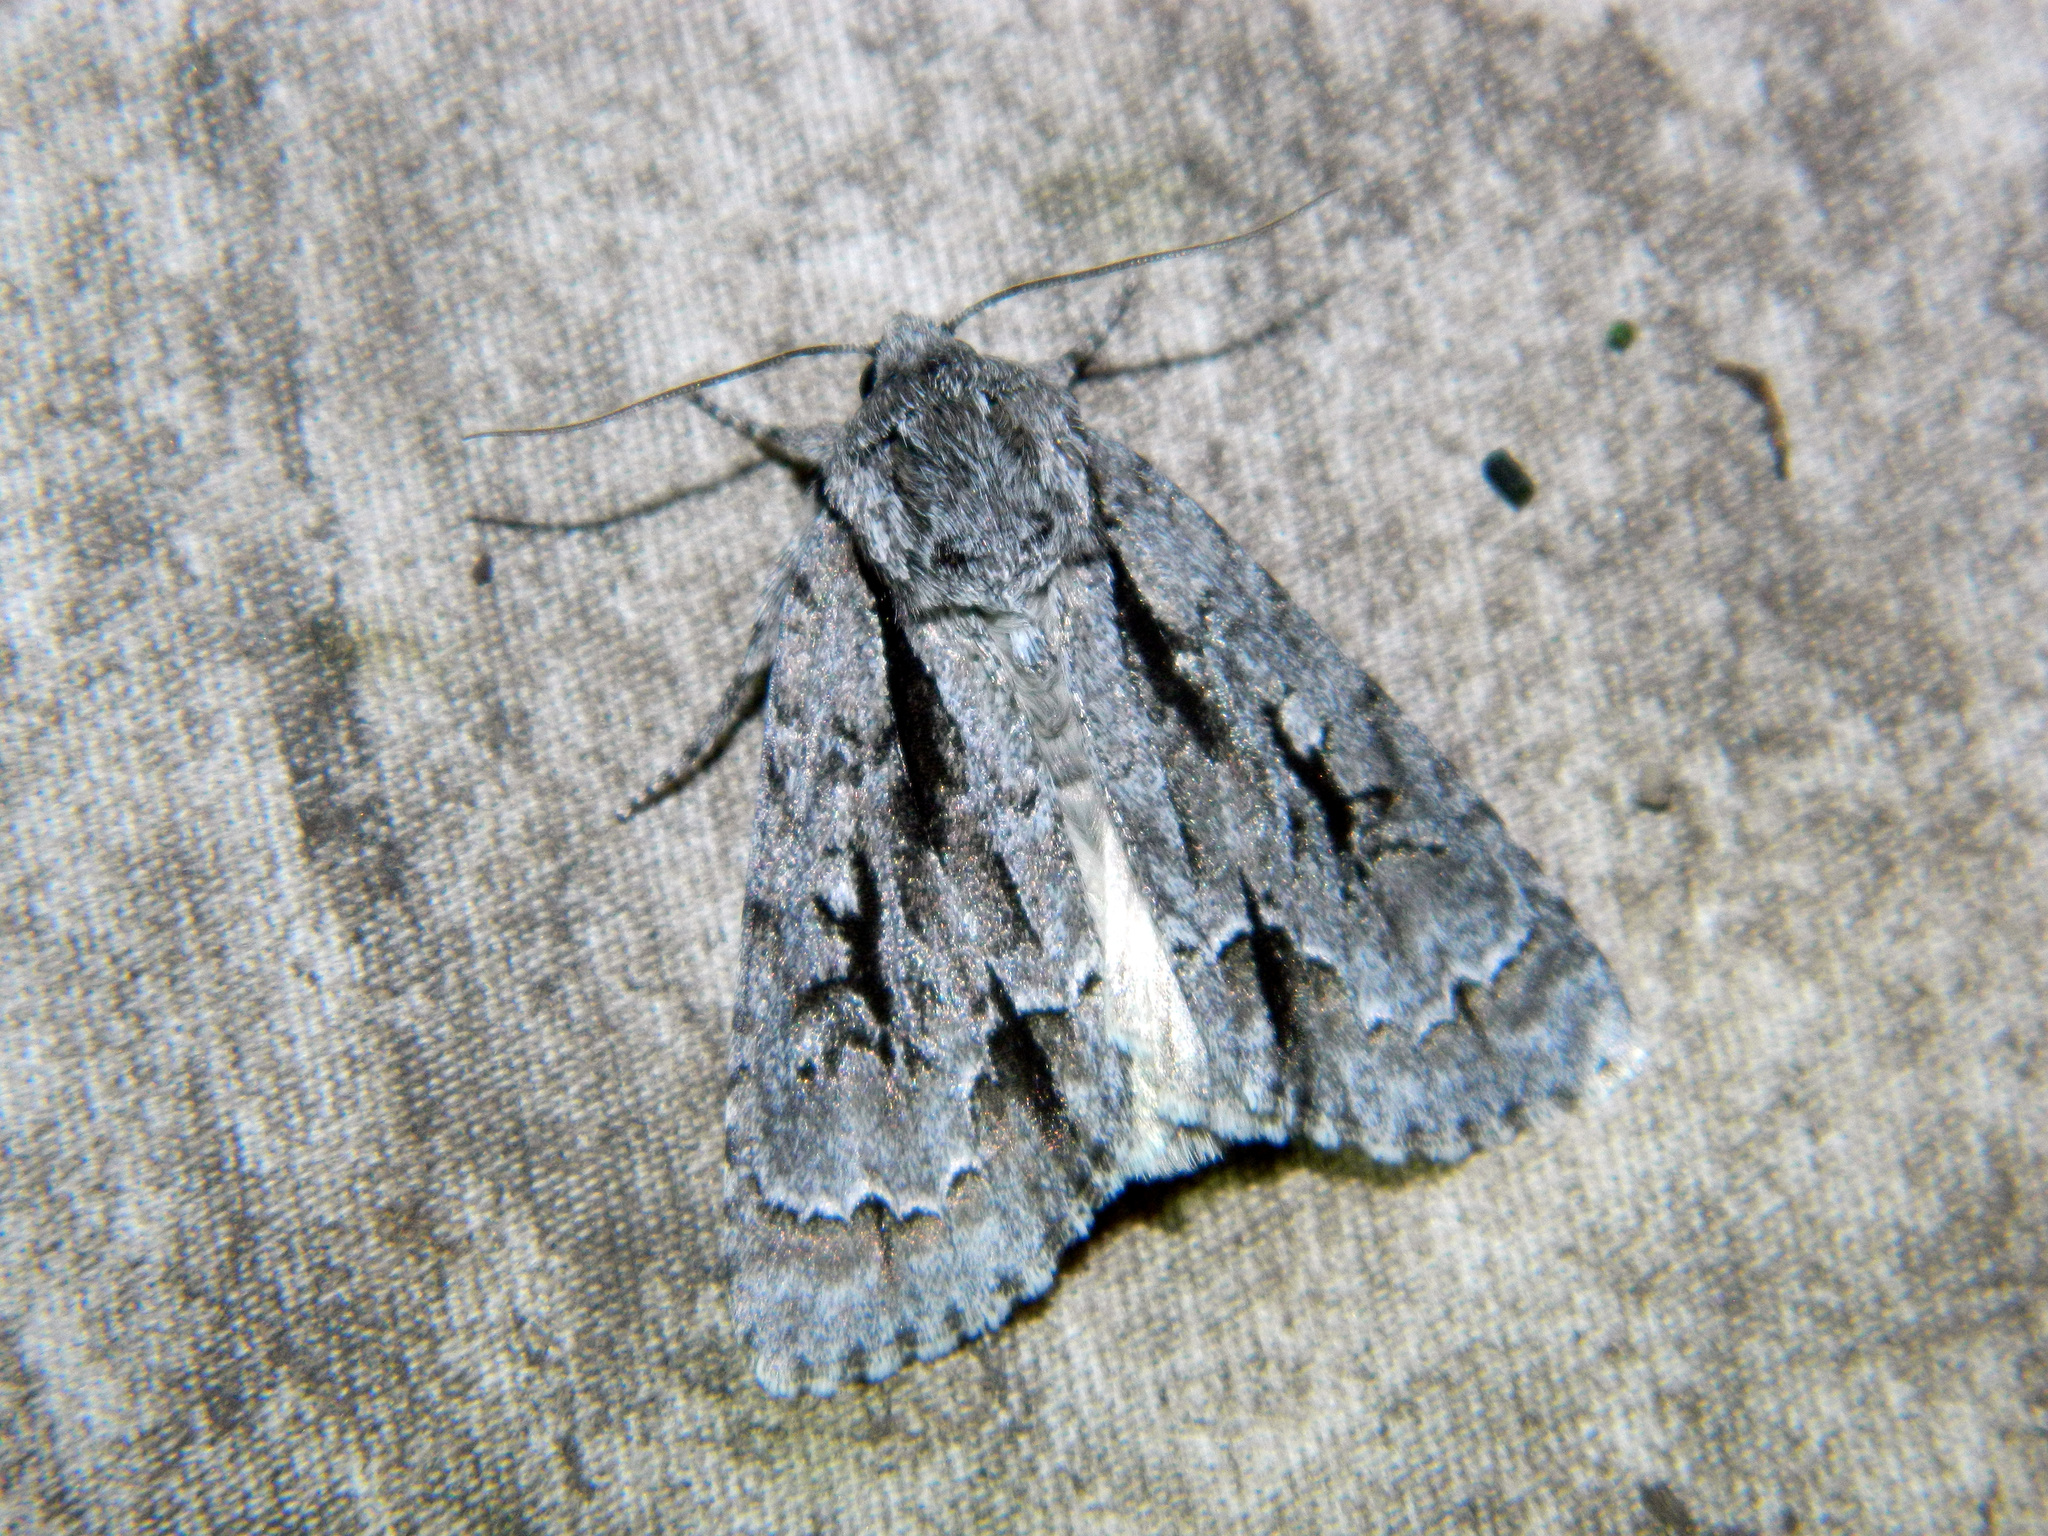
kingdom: Animalia
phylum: Arthropoda
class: Insecta
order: Lepidoptera
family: Noctuidae
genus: Acronicta
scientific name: Acronicta hasta
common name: Cherry dagger
